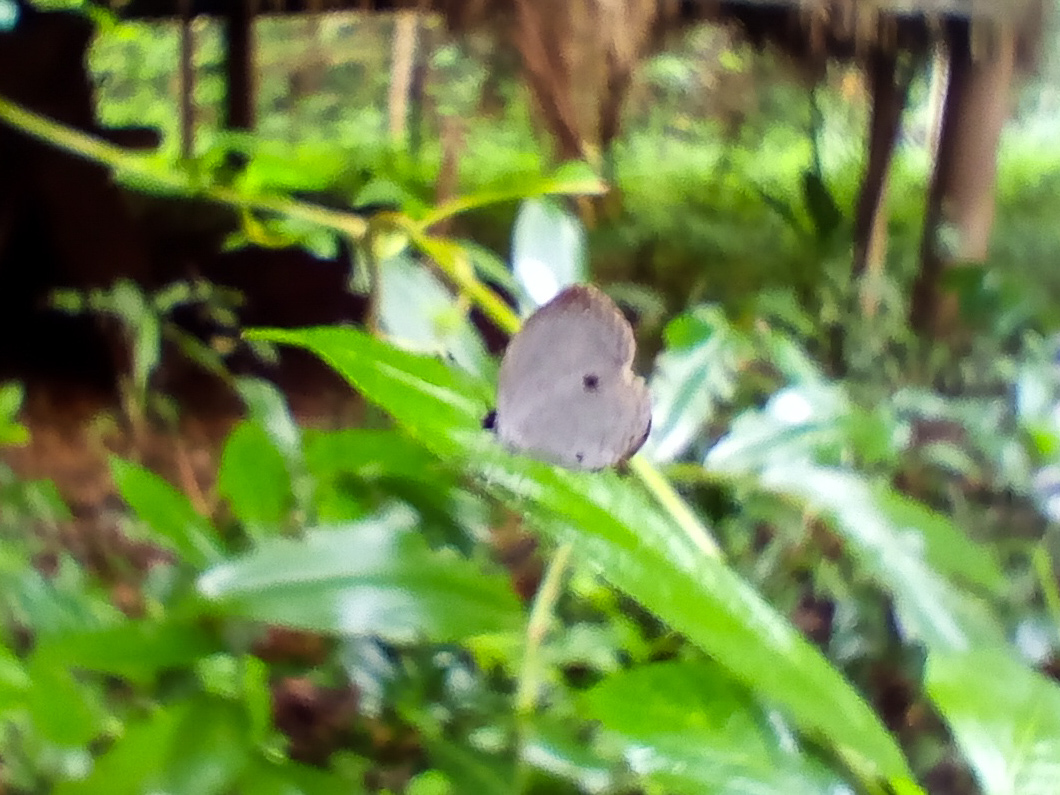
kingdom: Animalia
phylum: Arthropoda
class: Insecta
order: Lepidoptera
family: Lycaenidae
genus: Neopithecops
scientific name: Neopithecops zalmora
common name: Quaker
